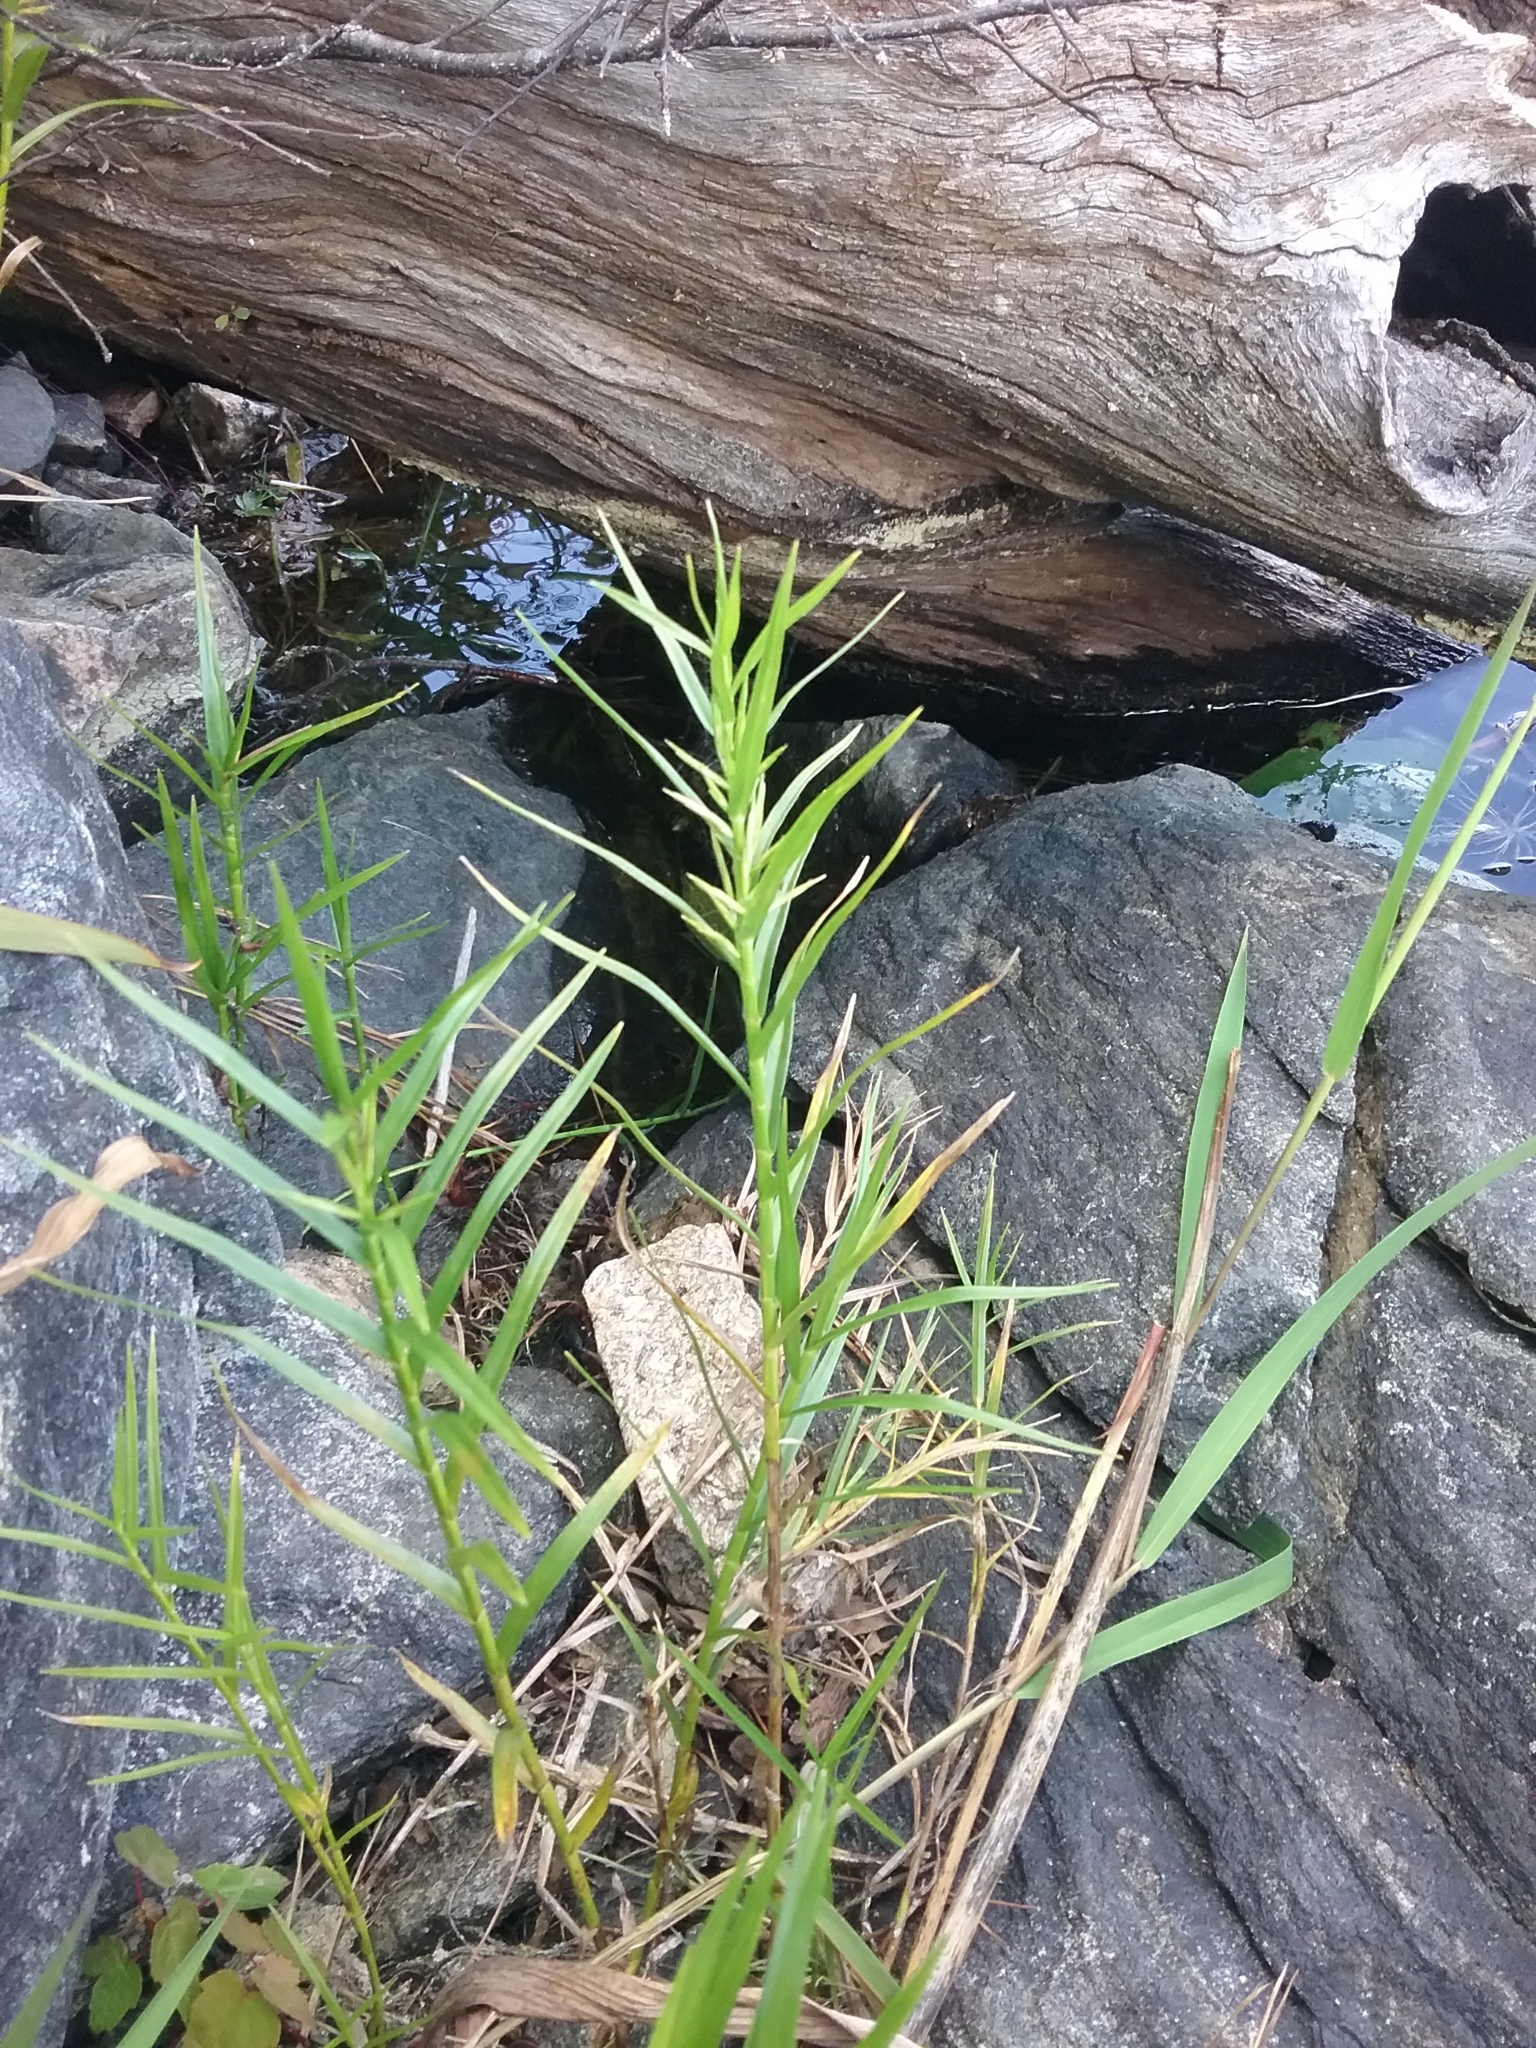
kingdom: Plantae
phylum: Tracheophyta
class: Liliopsida
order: Poales
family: Cyperaceae
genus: Dulichium
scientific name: Dulichium arundinaceum
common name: Three-way sedge
